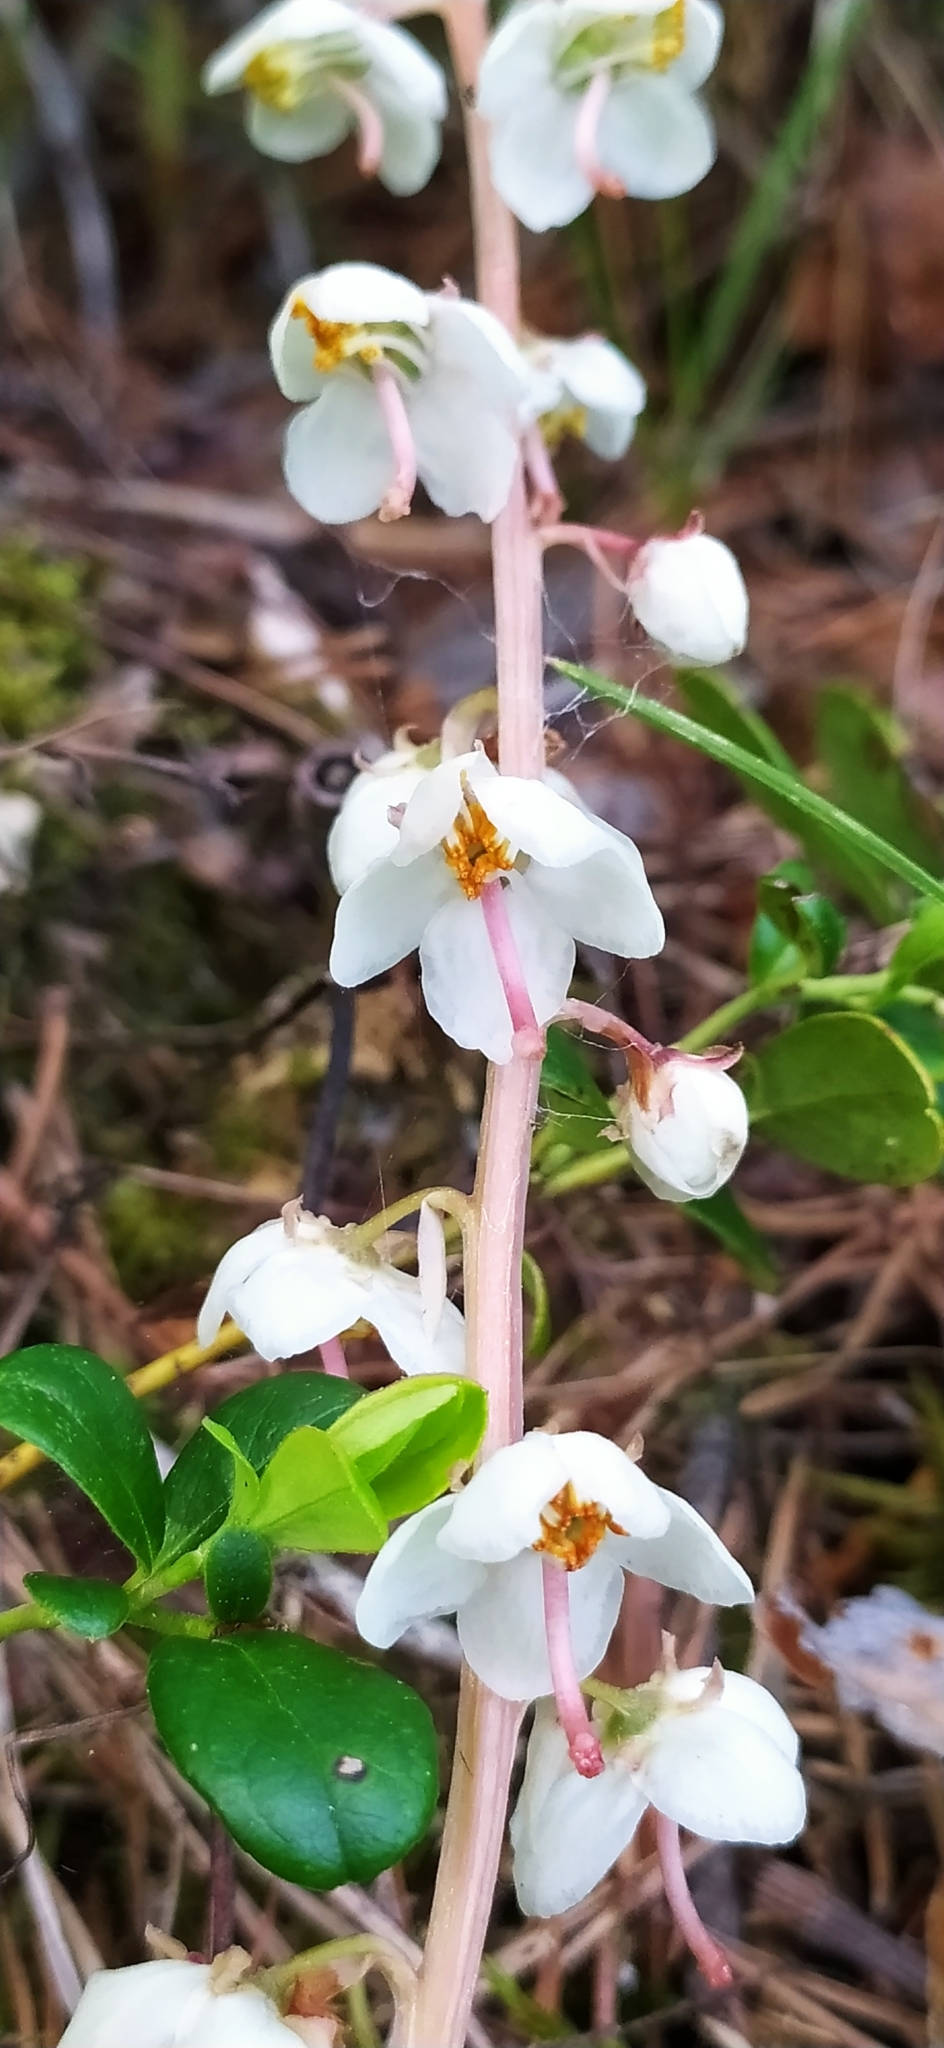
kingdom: Plantae
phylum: Tracheophyta
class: Magnoliopsida
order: Ericales
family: Ericaceae
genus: Pyrola
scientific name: Pyrola rotundifolia
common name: Round-leaved wintergreen
